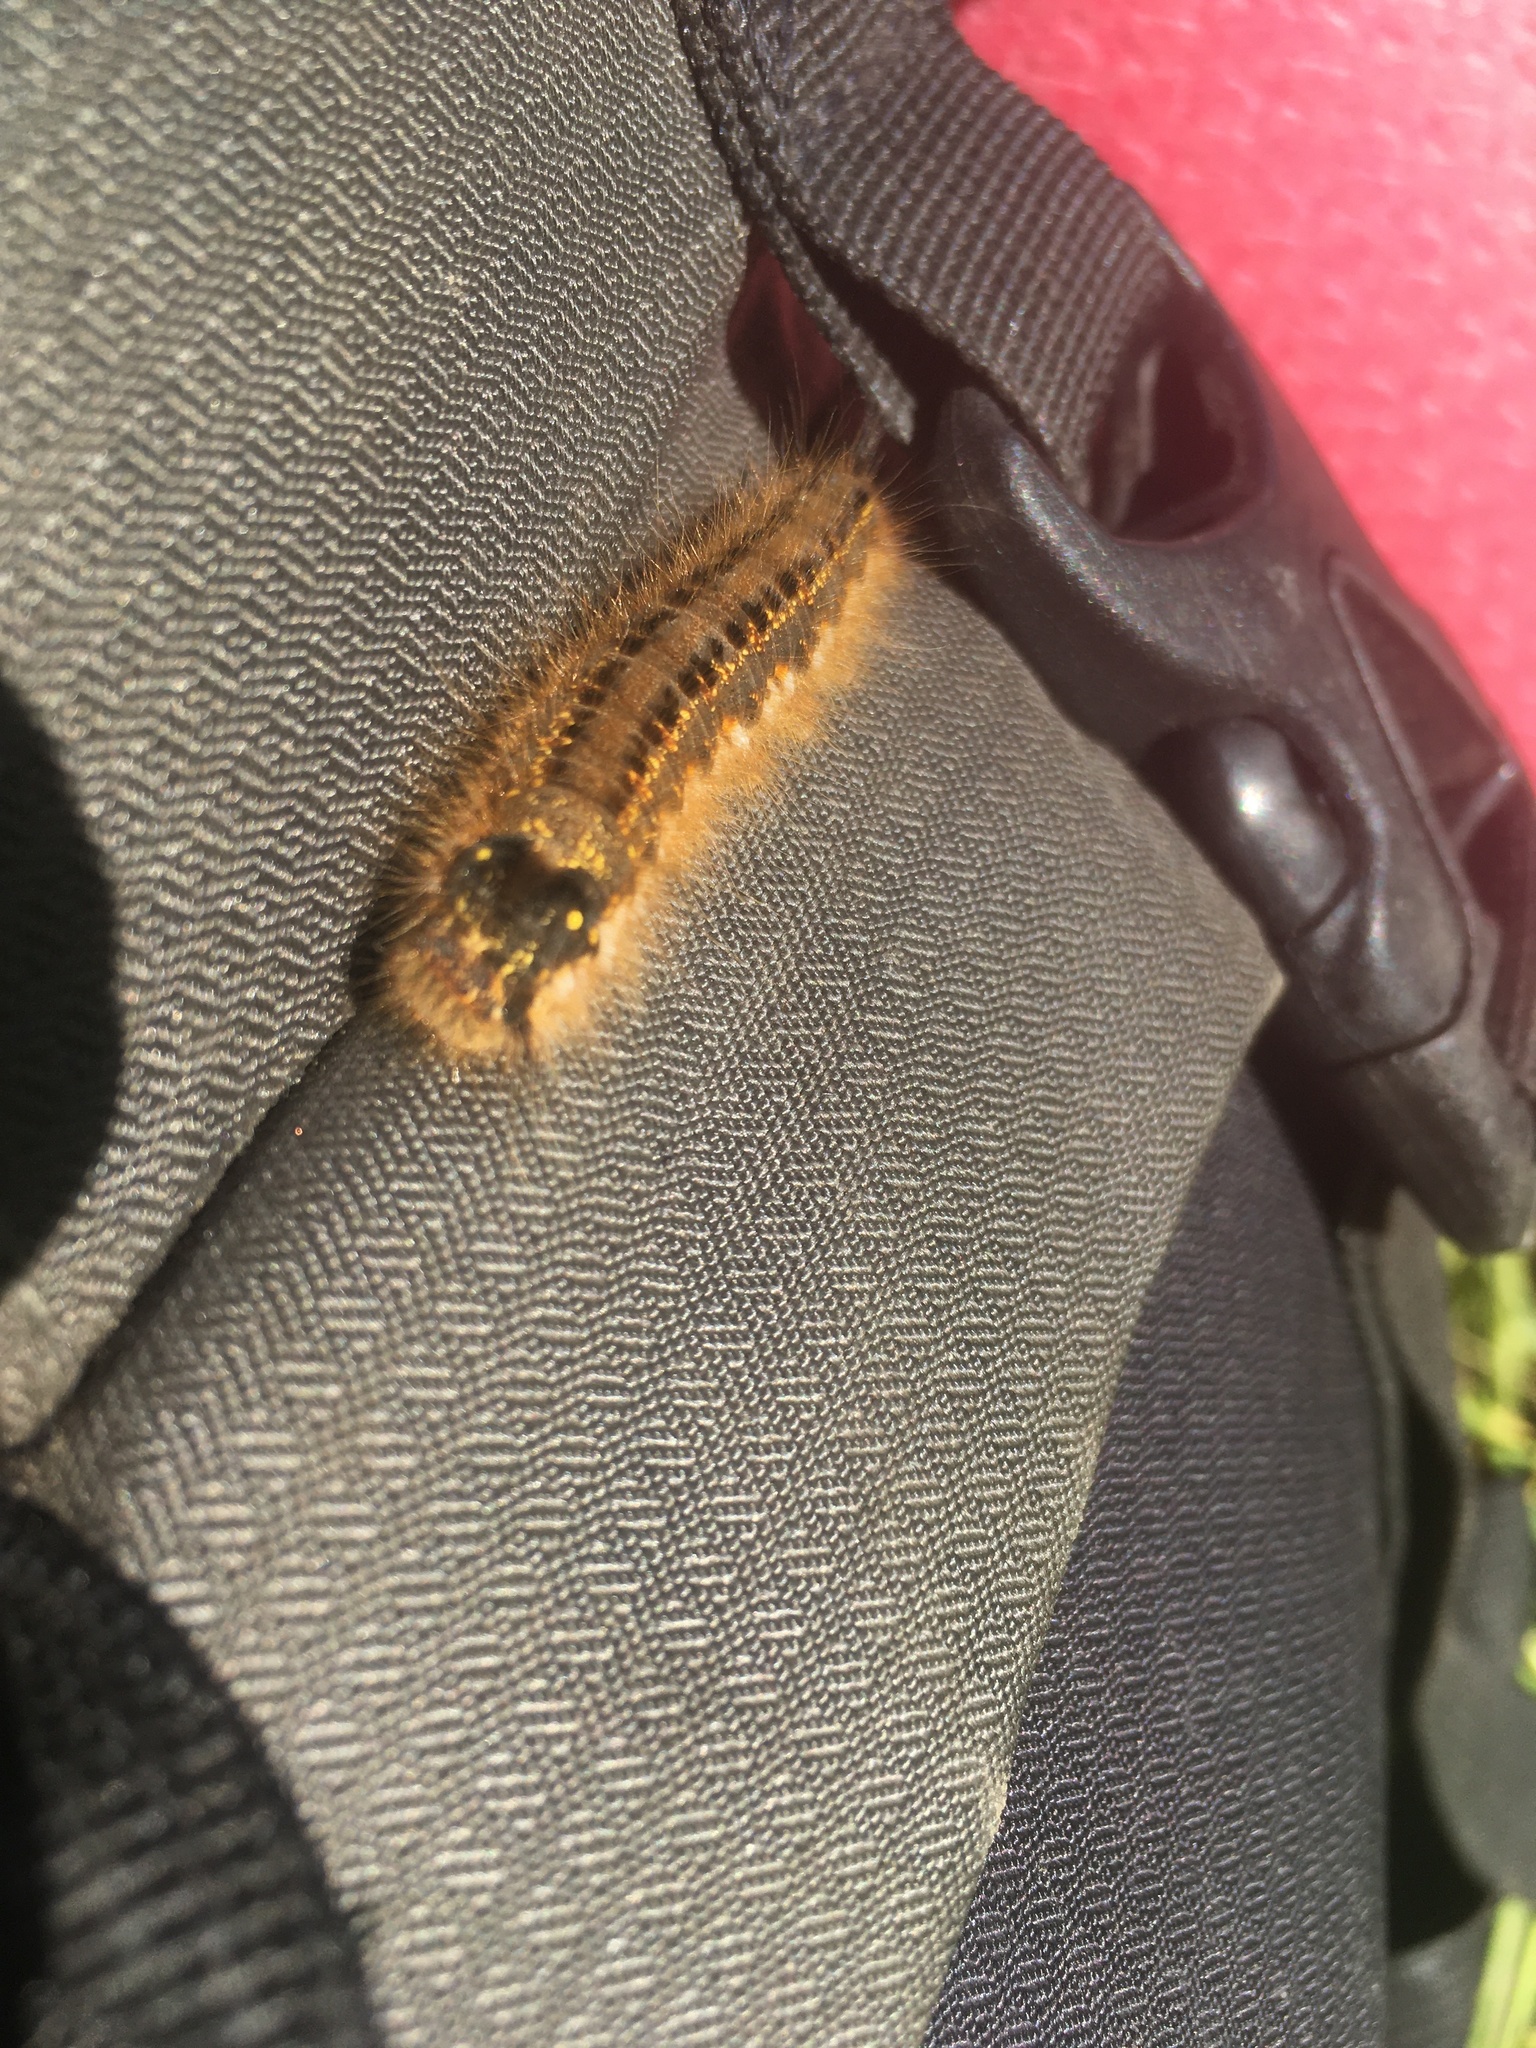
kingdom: Animalia
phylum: Arthropoda
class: Insecta
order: Lepidoptera
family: Lasiocampidae
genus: Euthrix
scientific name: Euthrix potatoria
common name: Drinker
